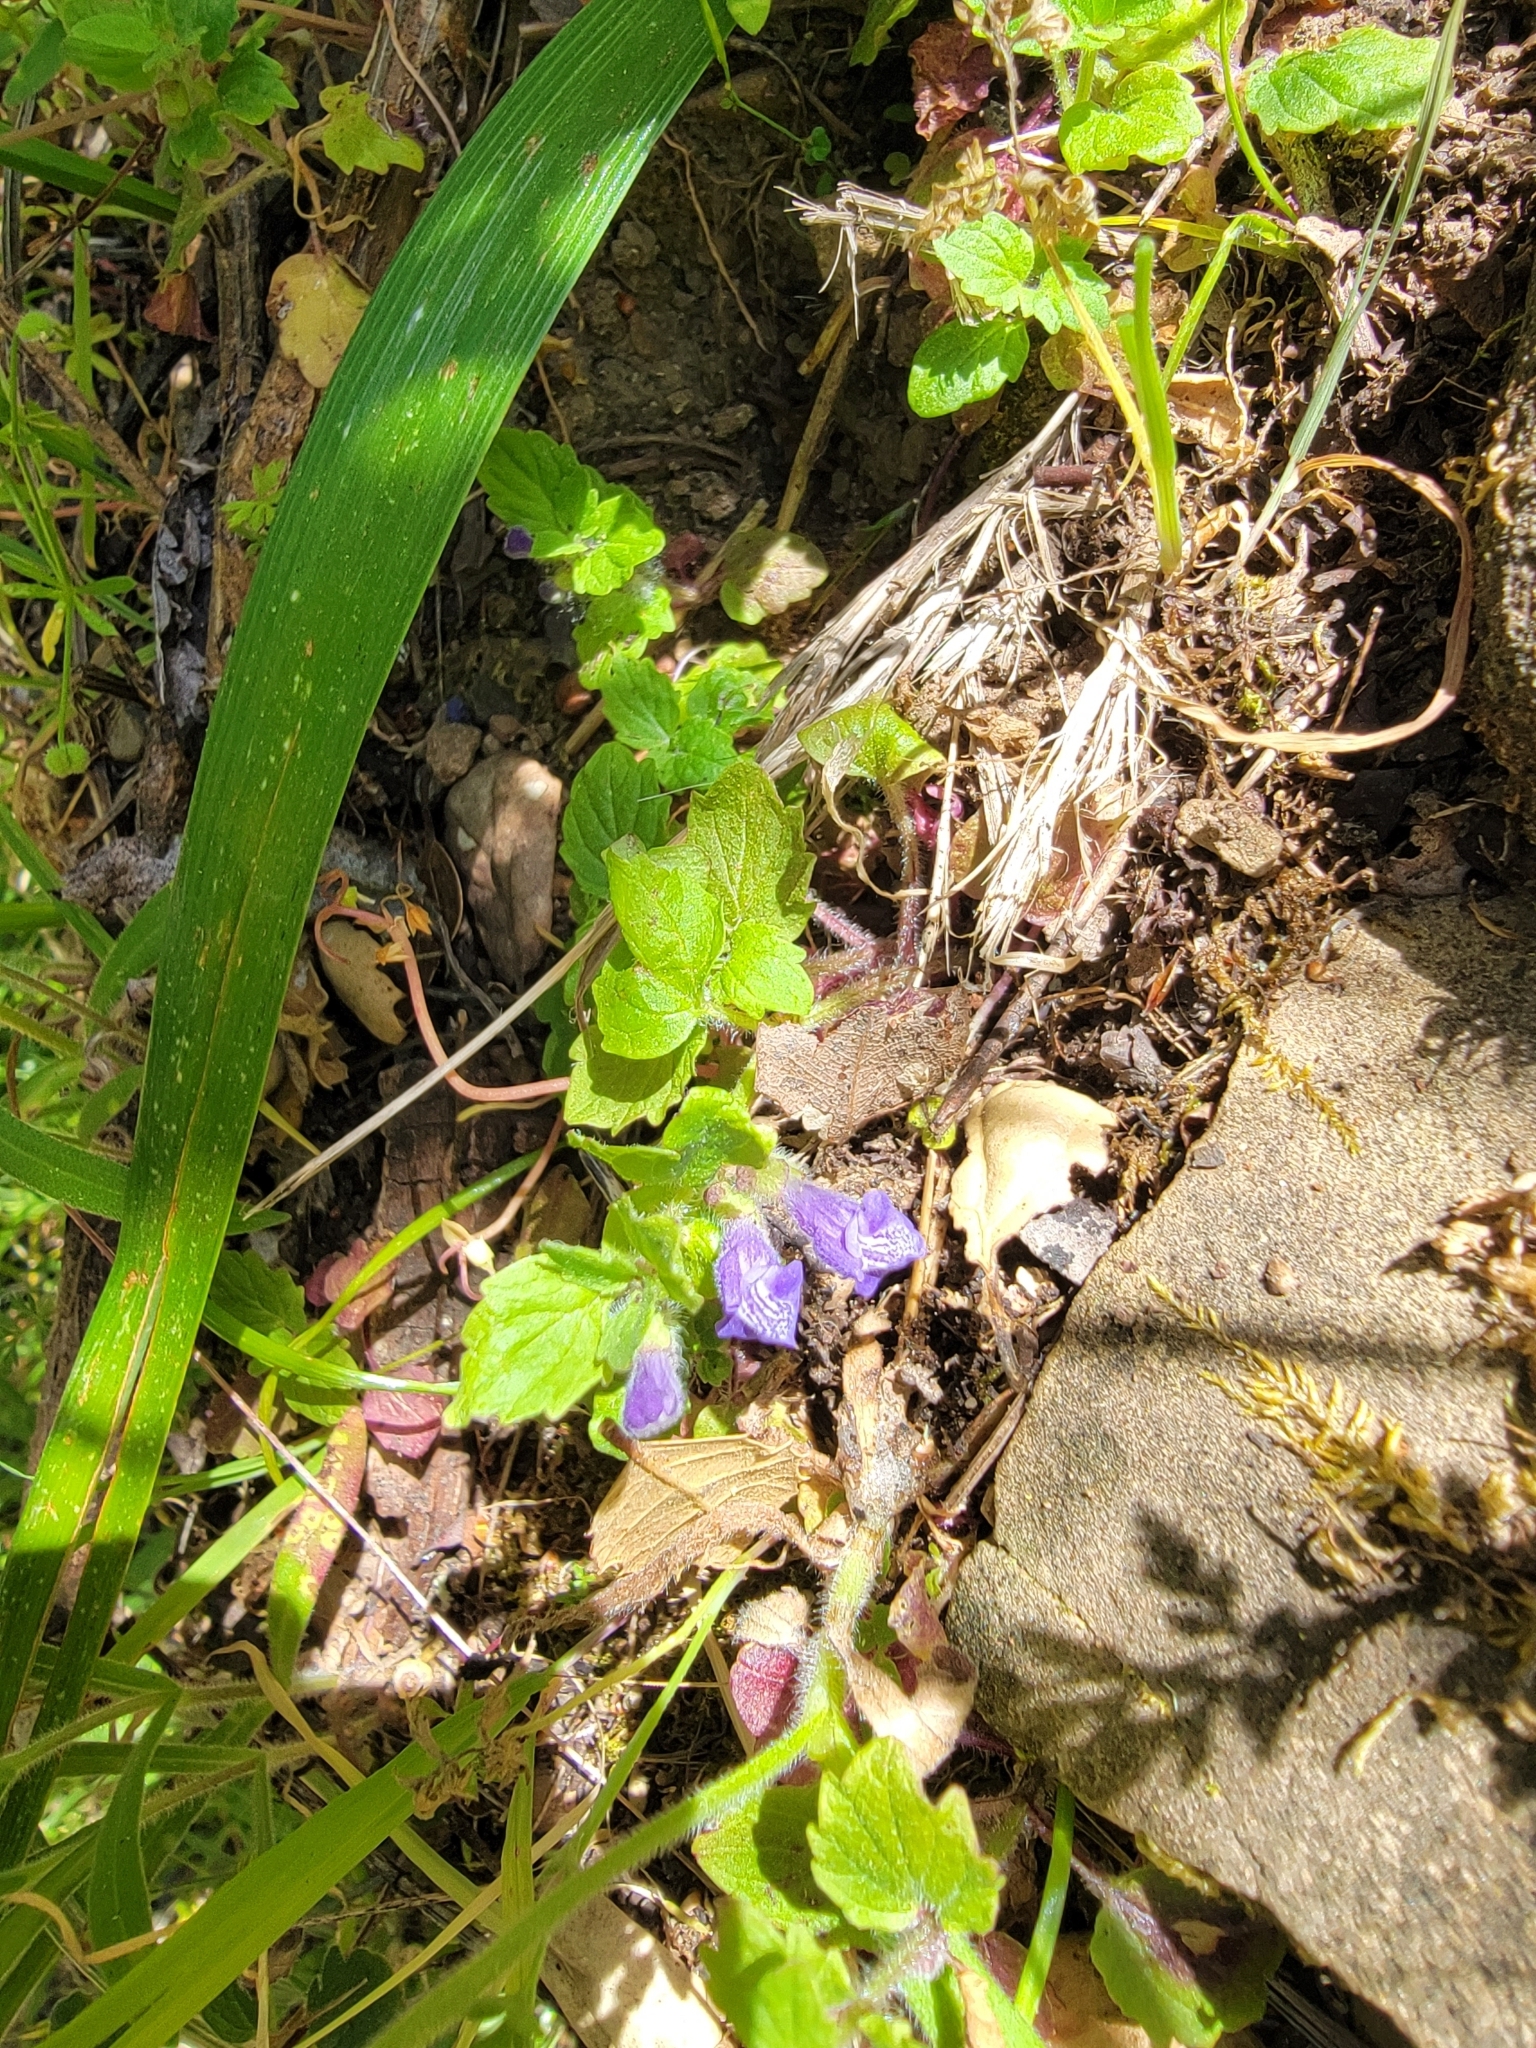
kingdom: Plantae
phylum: Tracheophyta
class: Magnoliopsida
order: Lamiales
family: Lamiaceae
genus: Scutellaria
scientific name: Scutellaria tuberosa
